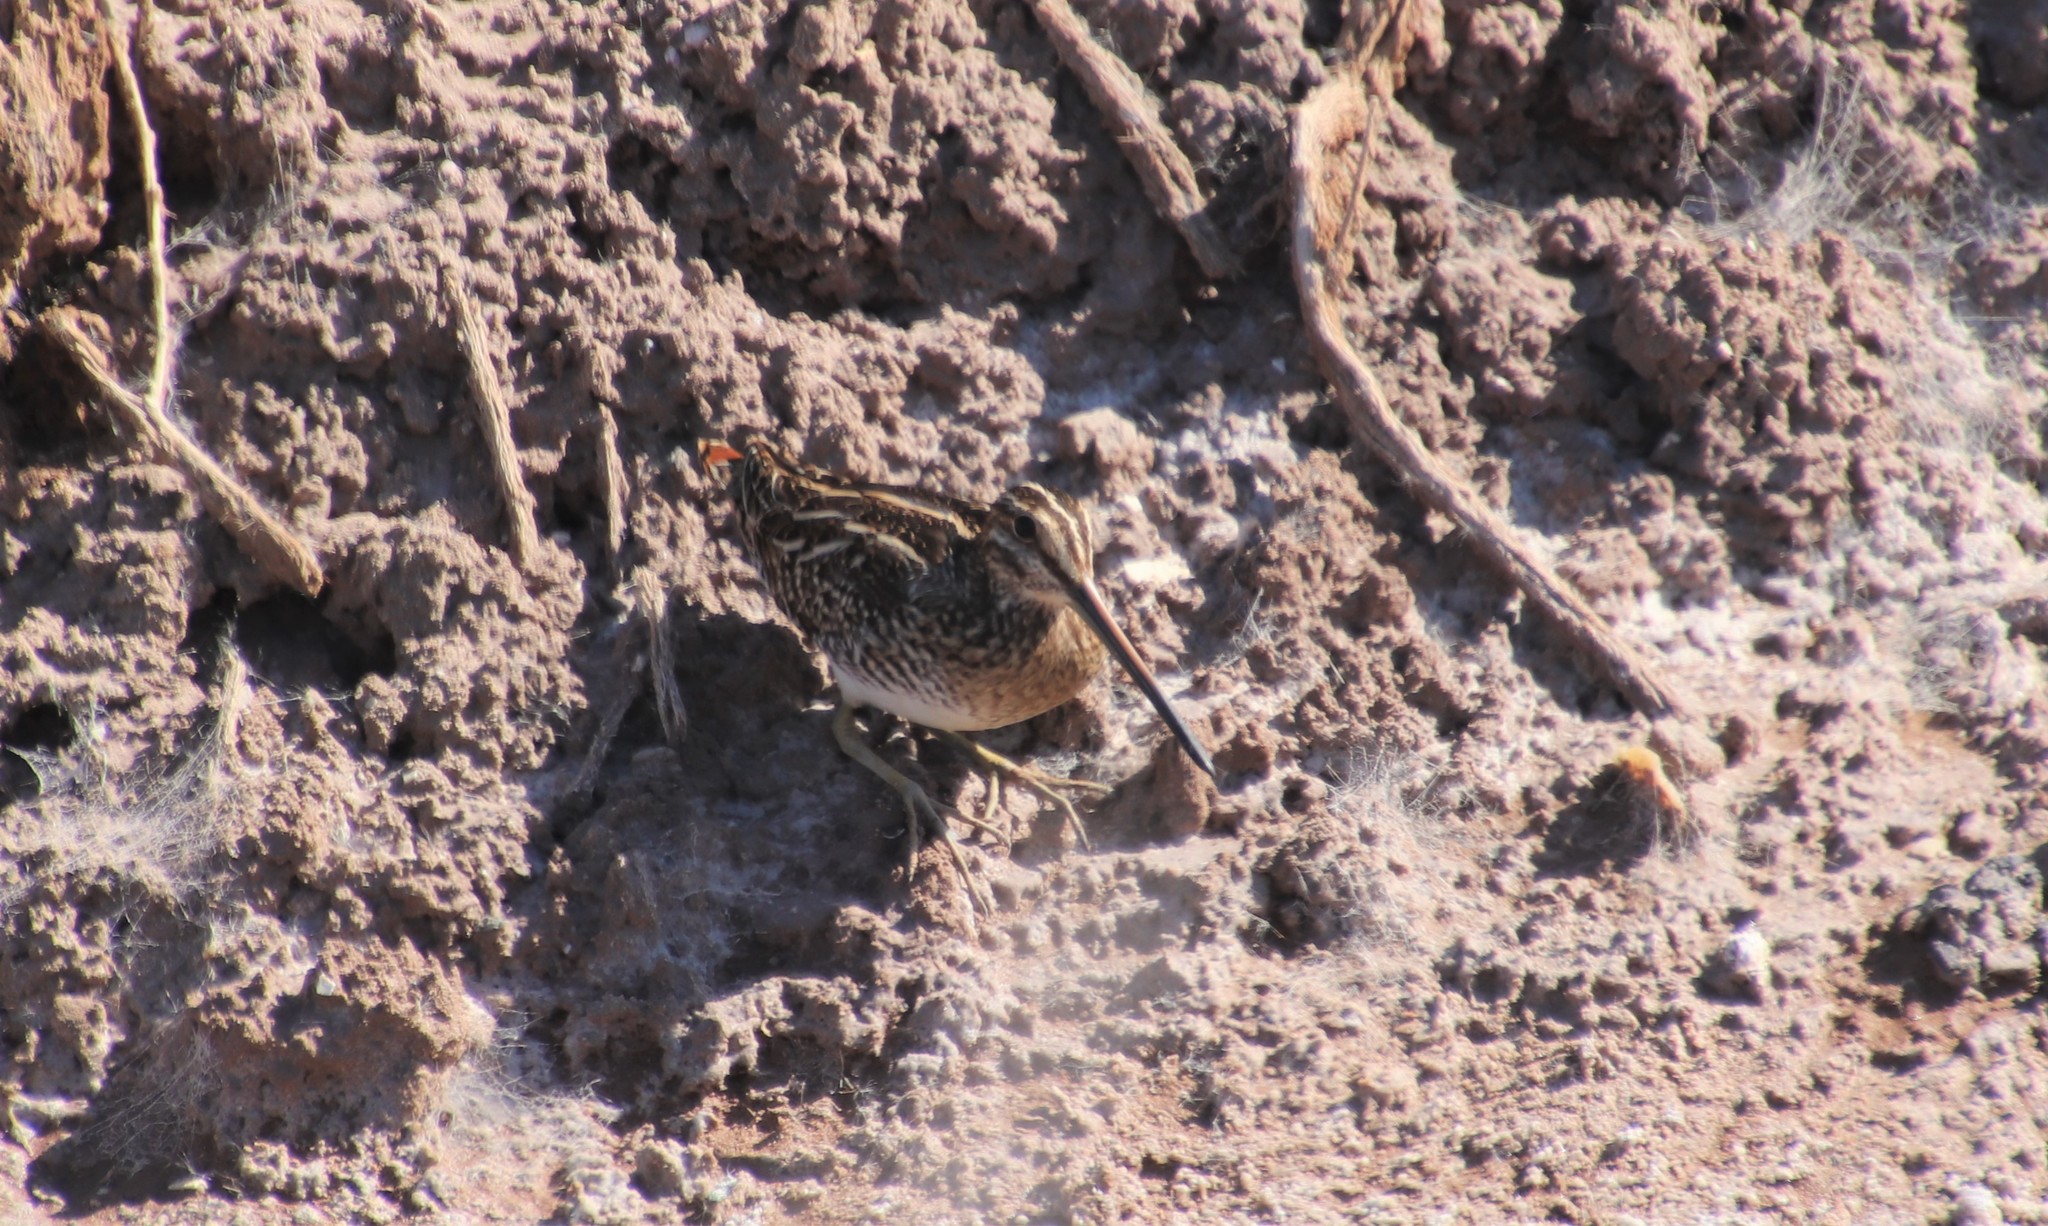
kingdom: Animalia
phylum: Chordata
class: Aves
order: Charadriiformes
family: Scolopacidae
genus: Gallinago
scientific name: Gallinago delicata
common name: Wilson's snipe
